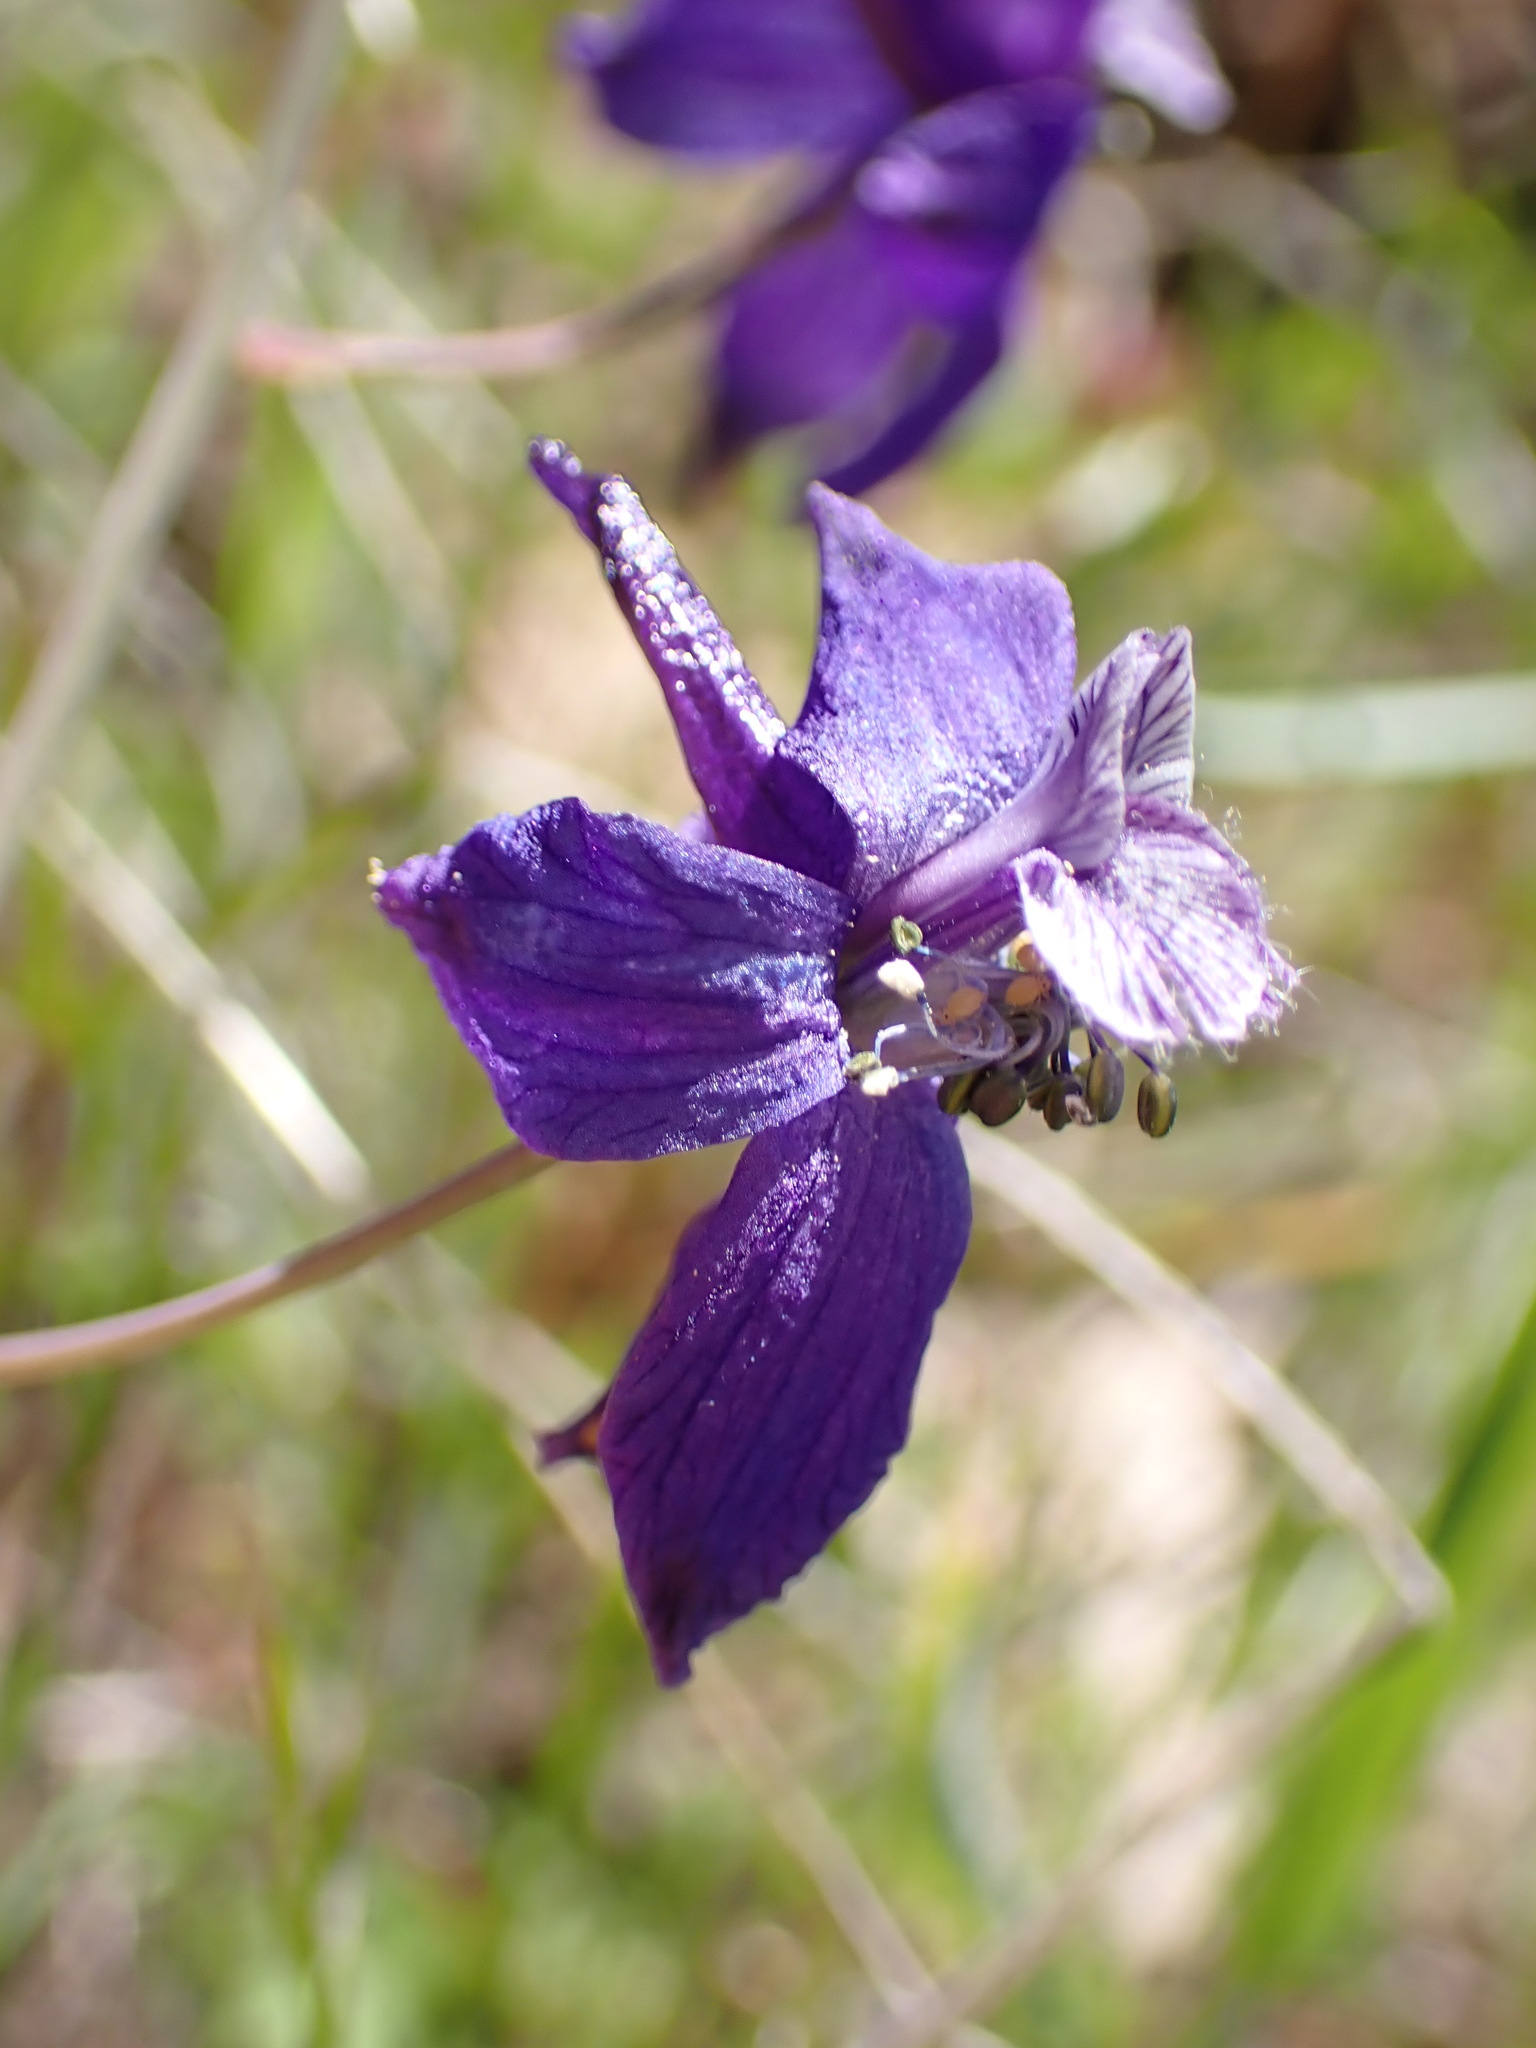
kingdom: Plantae
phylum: Tracheophyta
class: Magnoliopsida
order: Ranunculales
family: Ranunculaceae
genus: Delphinium
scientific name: Delphinium patens
